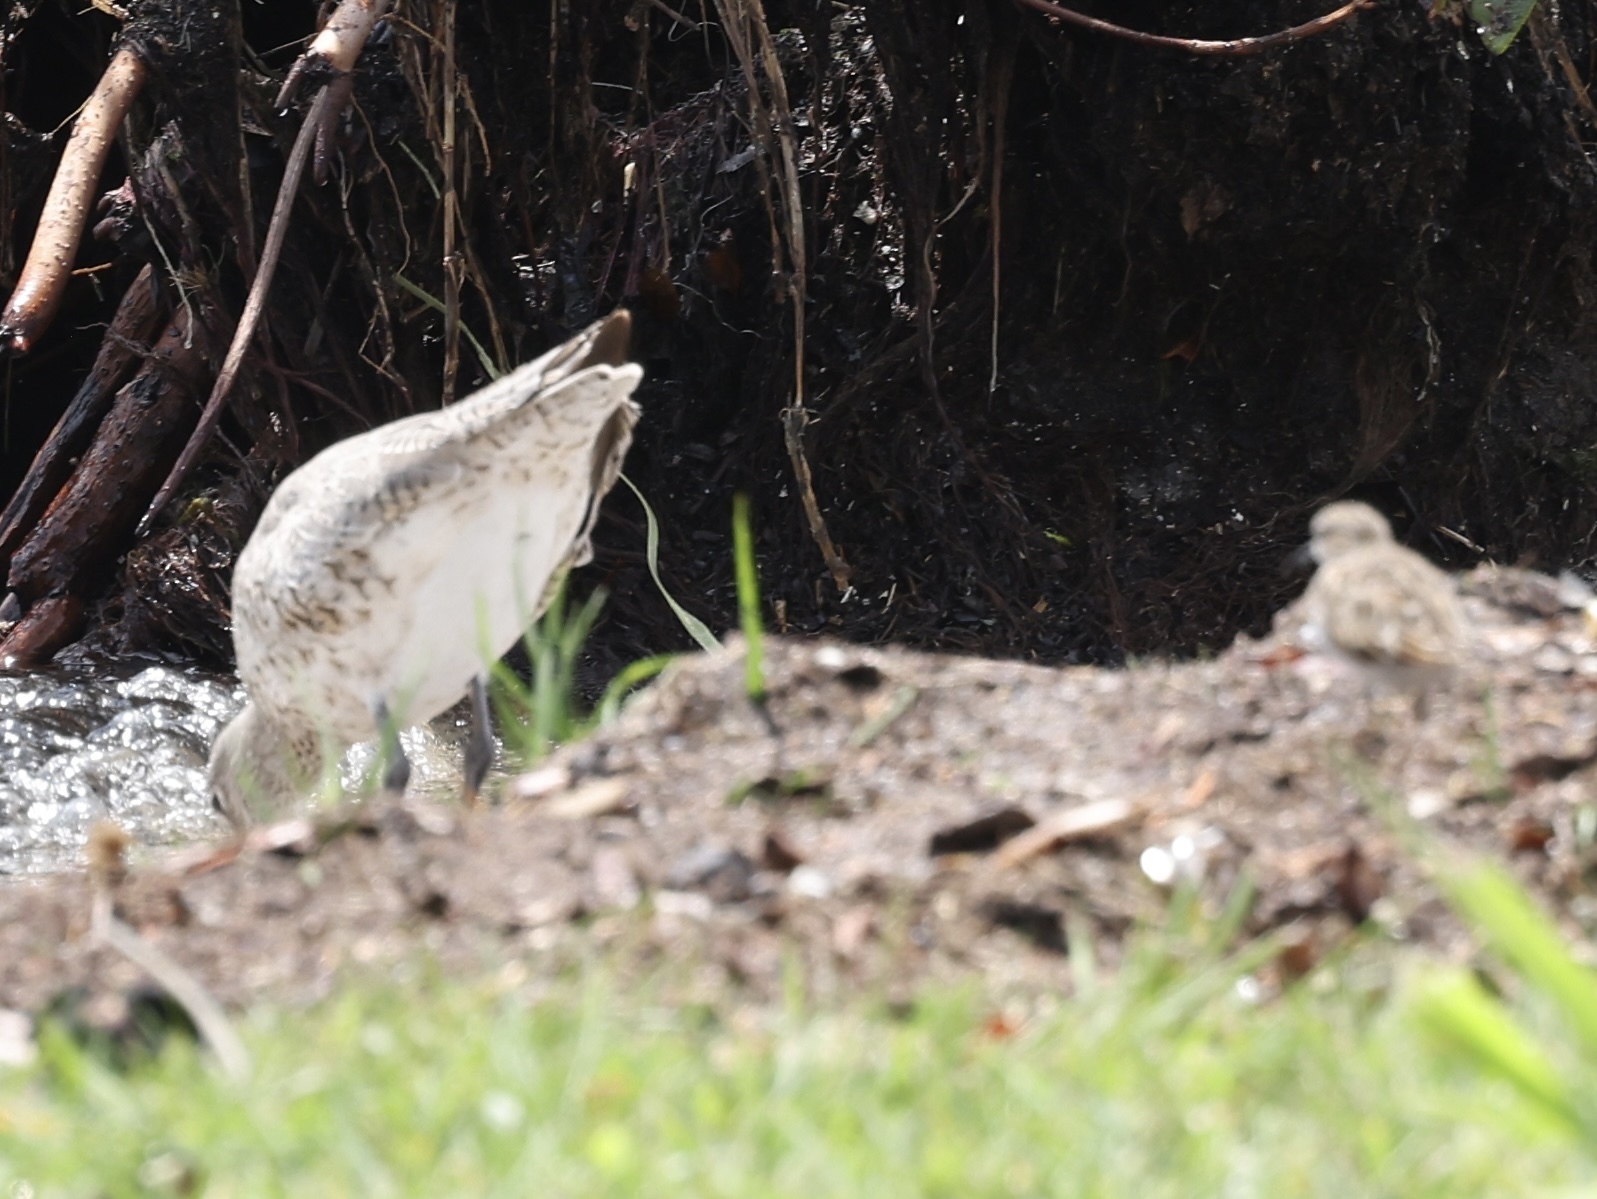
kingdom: Animalia
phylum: Chordata
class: Aves
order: Charadriiformes
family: Scolopacidae
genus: Tringa
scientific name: Tringa semipalmata
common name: Willet
